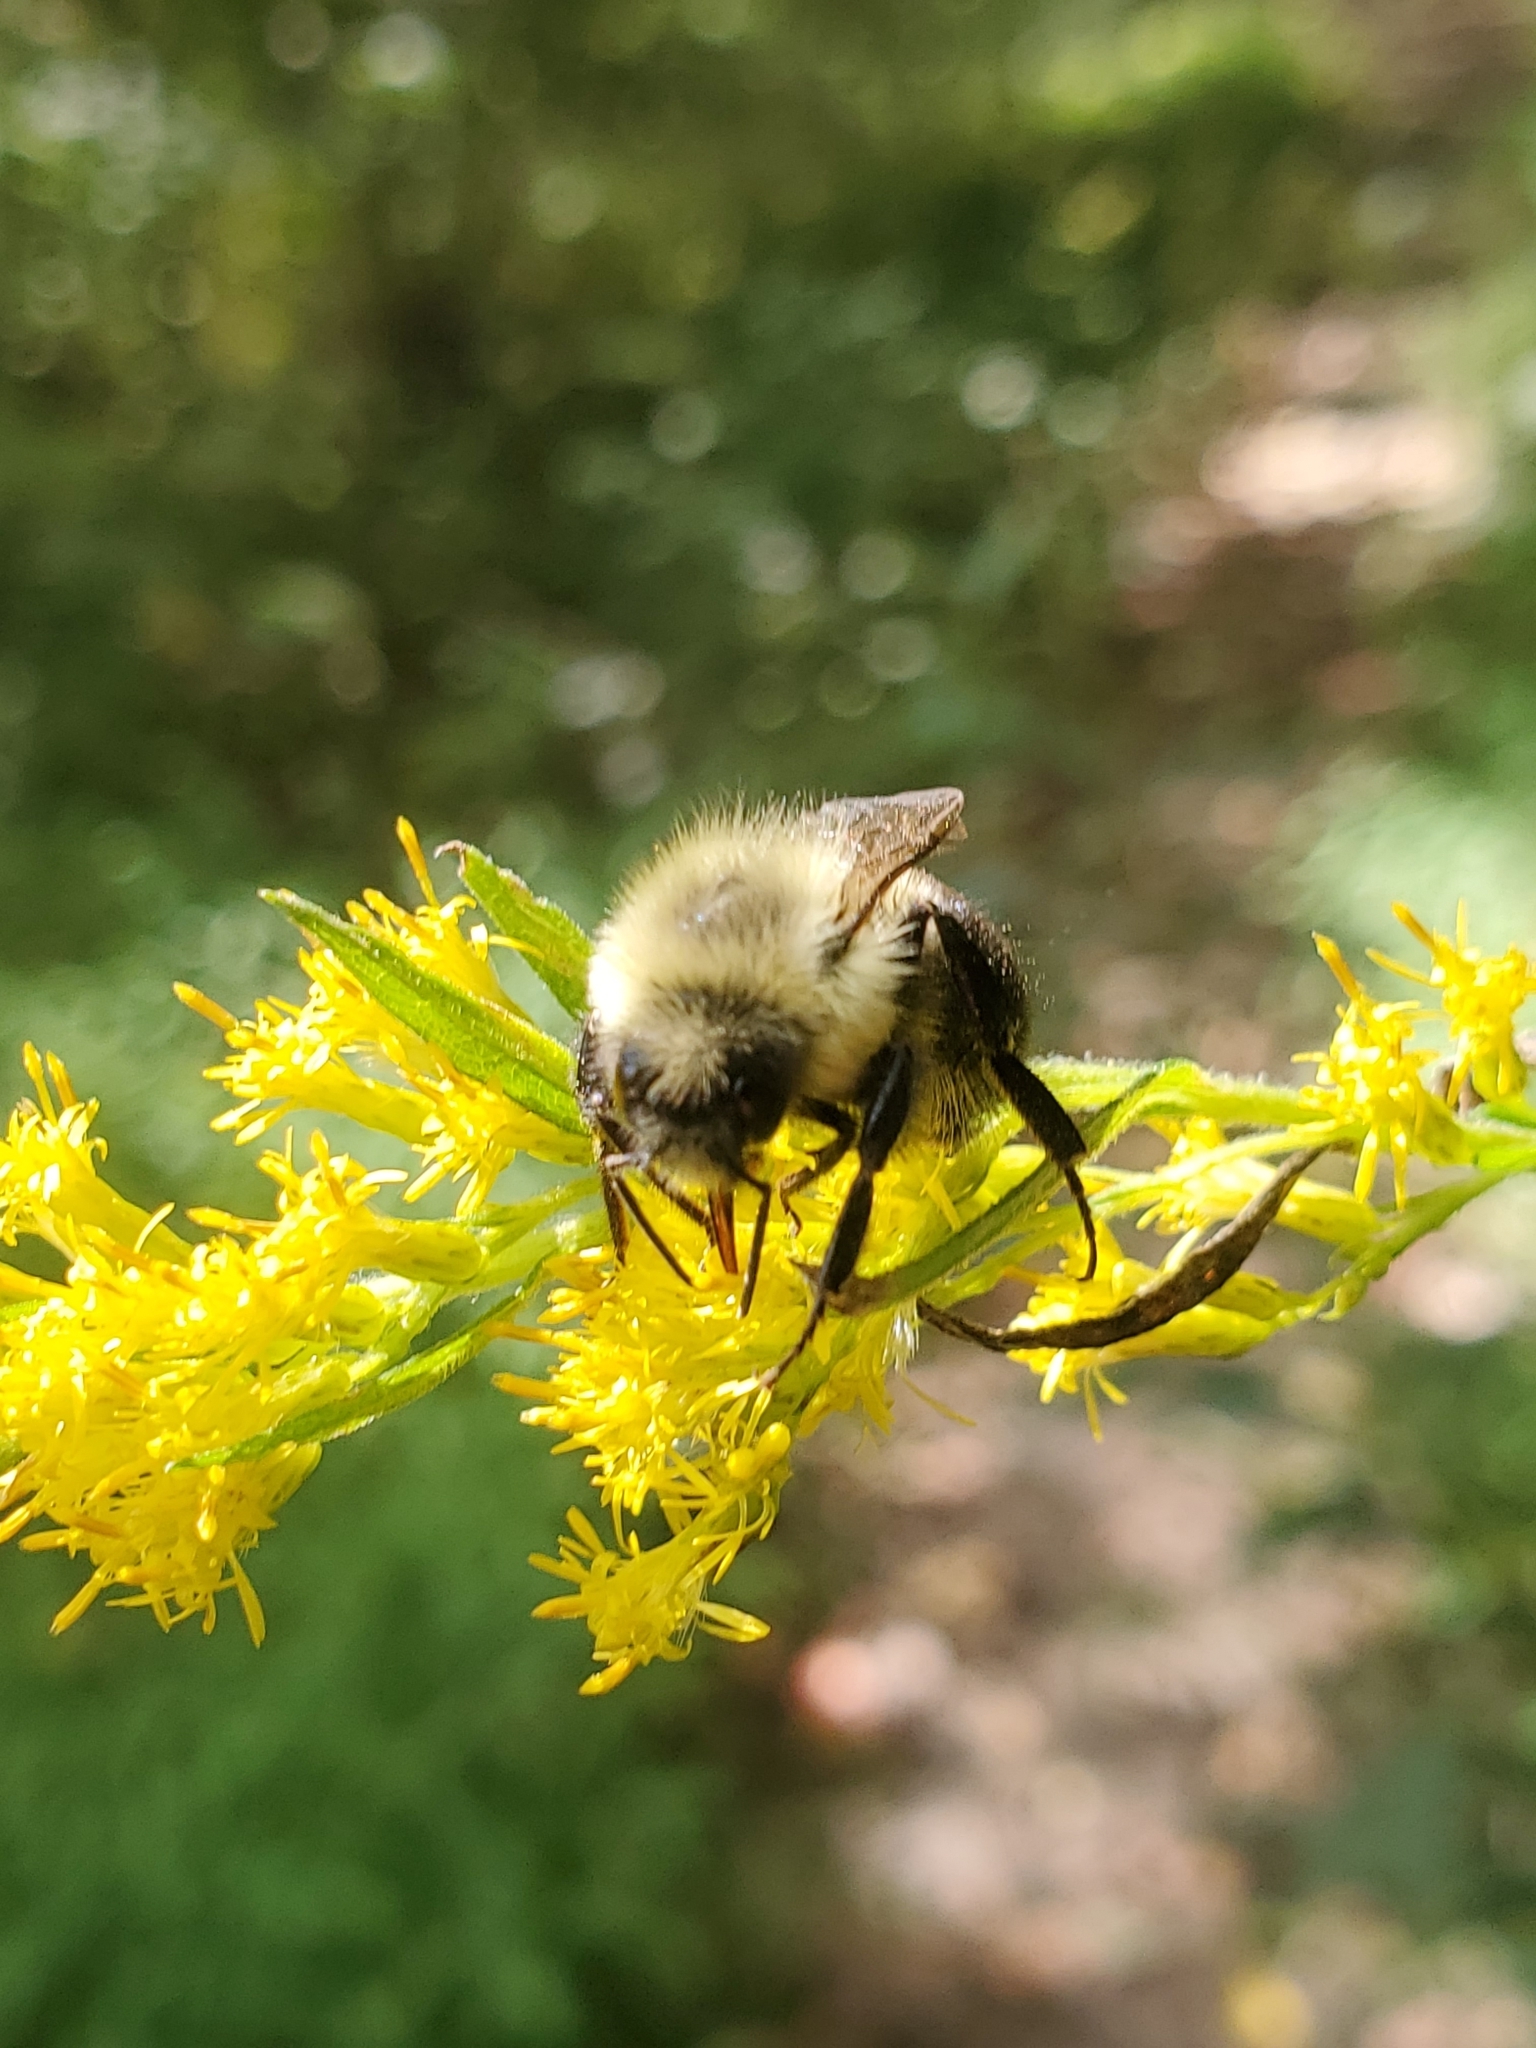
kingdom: Animalia
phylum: Arthropoda
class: Insecta
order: Hymenoptera
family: Apidae
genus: Bombus
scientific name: Bombus impatiens
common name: Common eastern bumble bee
